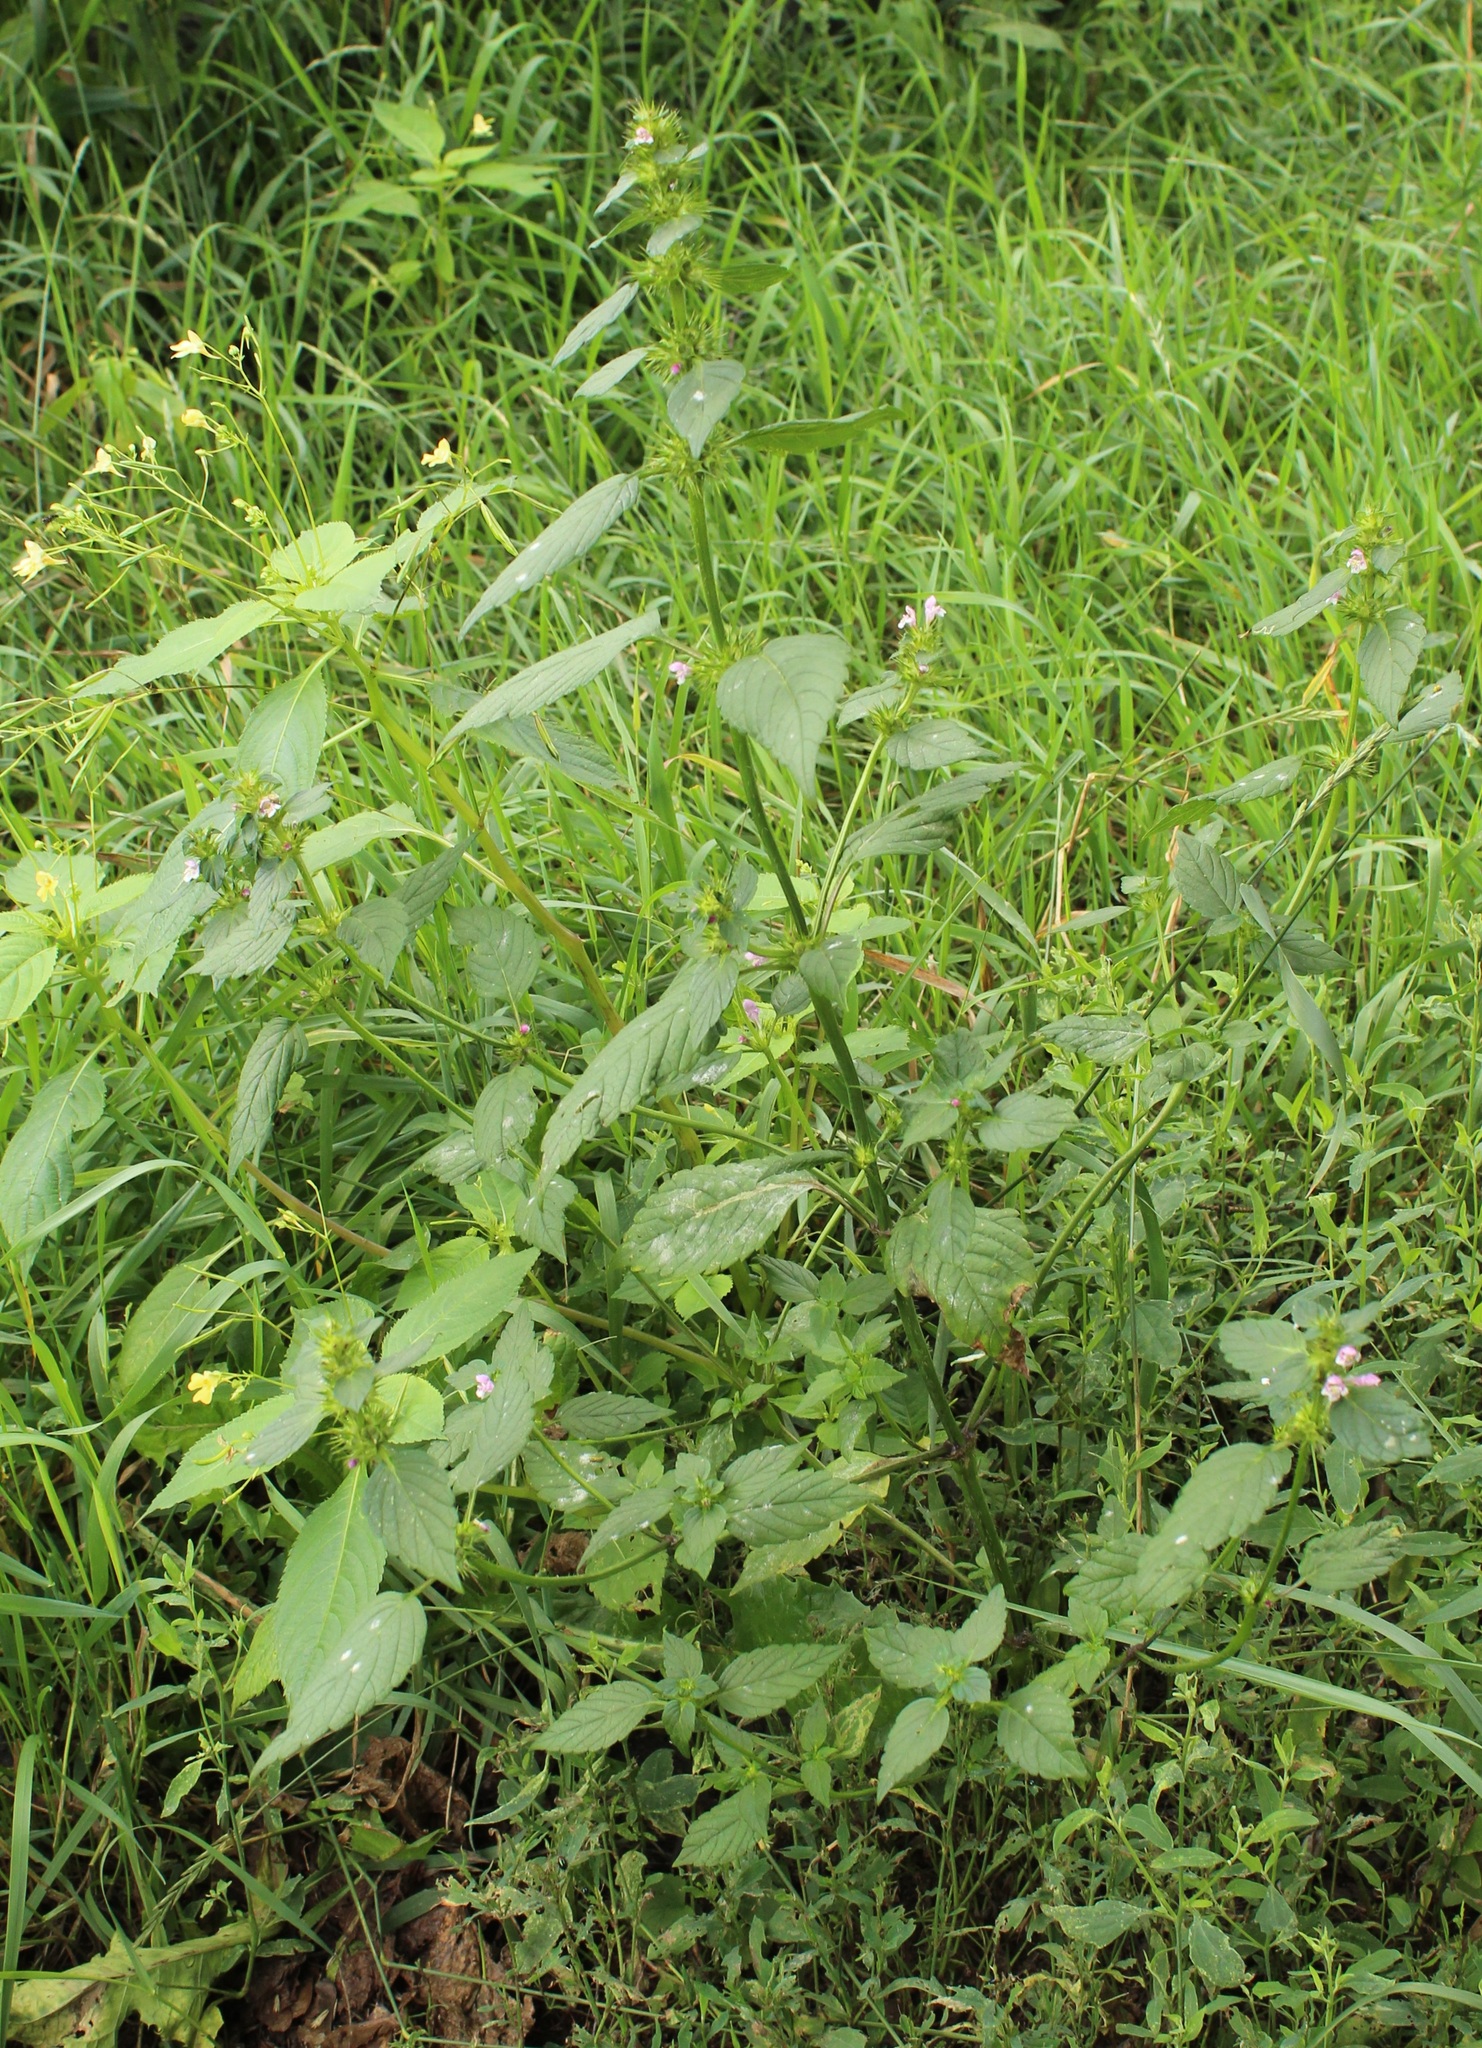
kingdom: Plantae
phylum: Tracheophyta
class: Magnoliopsida
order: Lamiales
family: Lamiaceae
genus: Galeopsis
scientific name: Galeopsis tetrahit
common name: Common hemp-nettle
